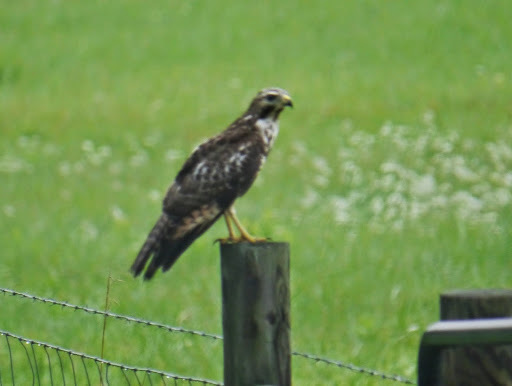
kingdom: Animalia
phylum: Chordata
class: Aves
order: Accipitriformes
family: Accipitridae
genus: Buteo
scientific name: Buteo jamaicensis
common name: Red-tailed hawk
